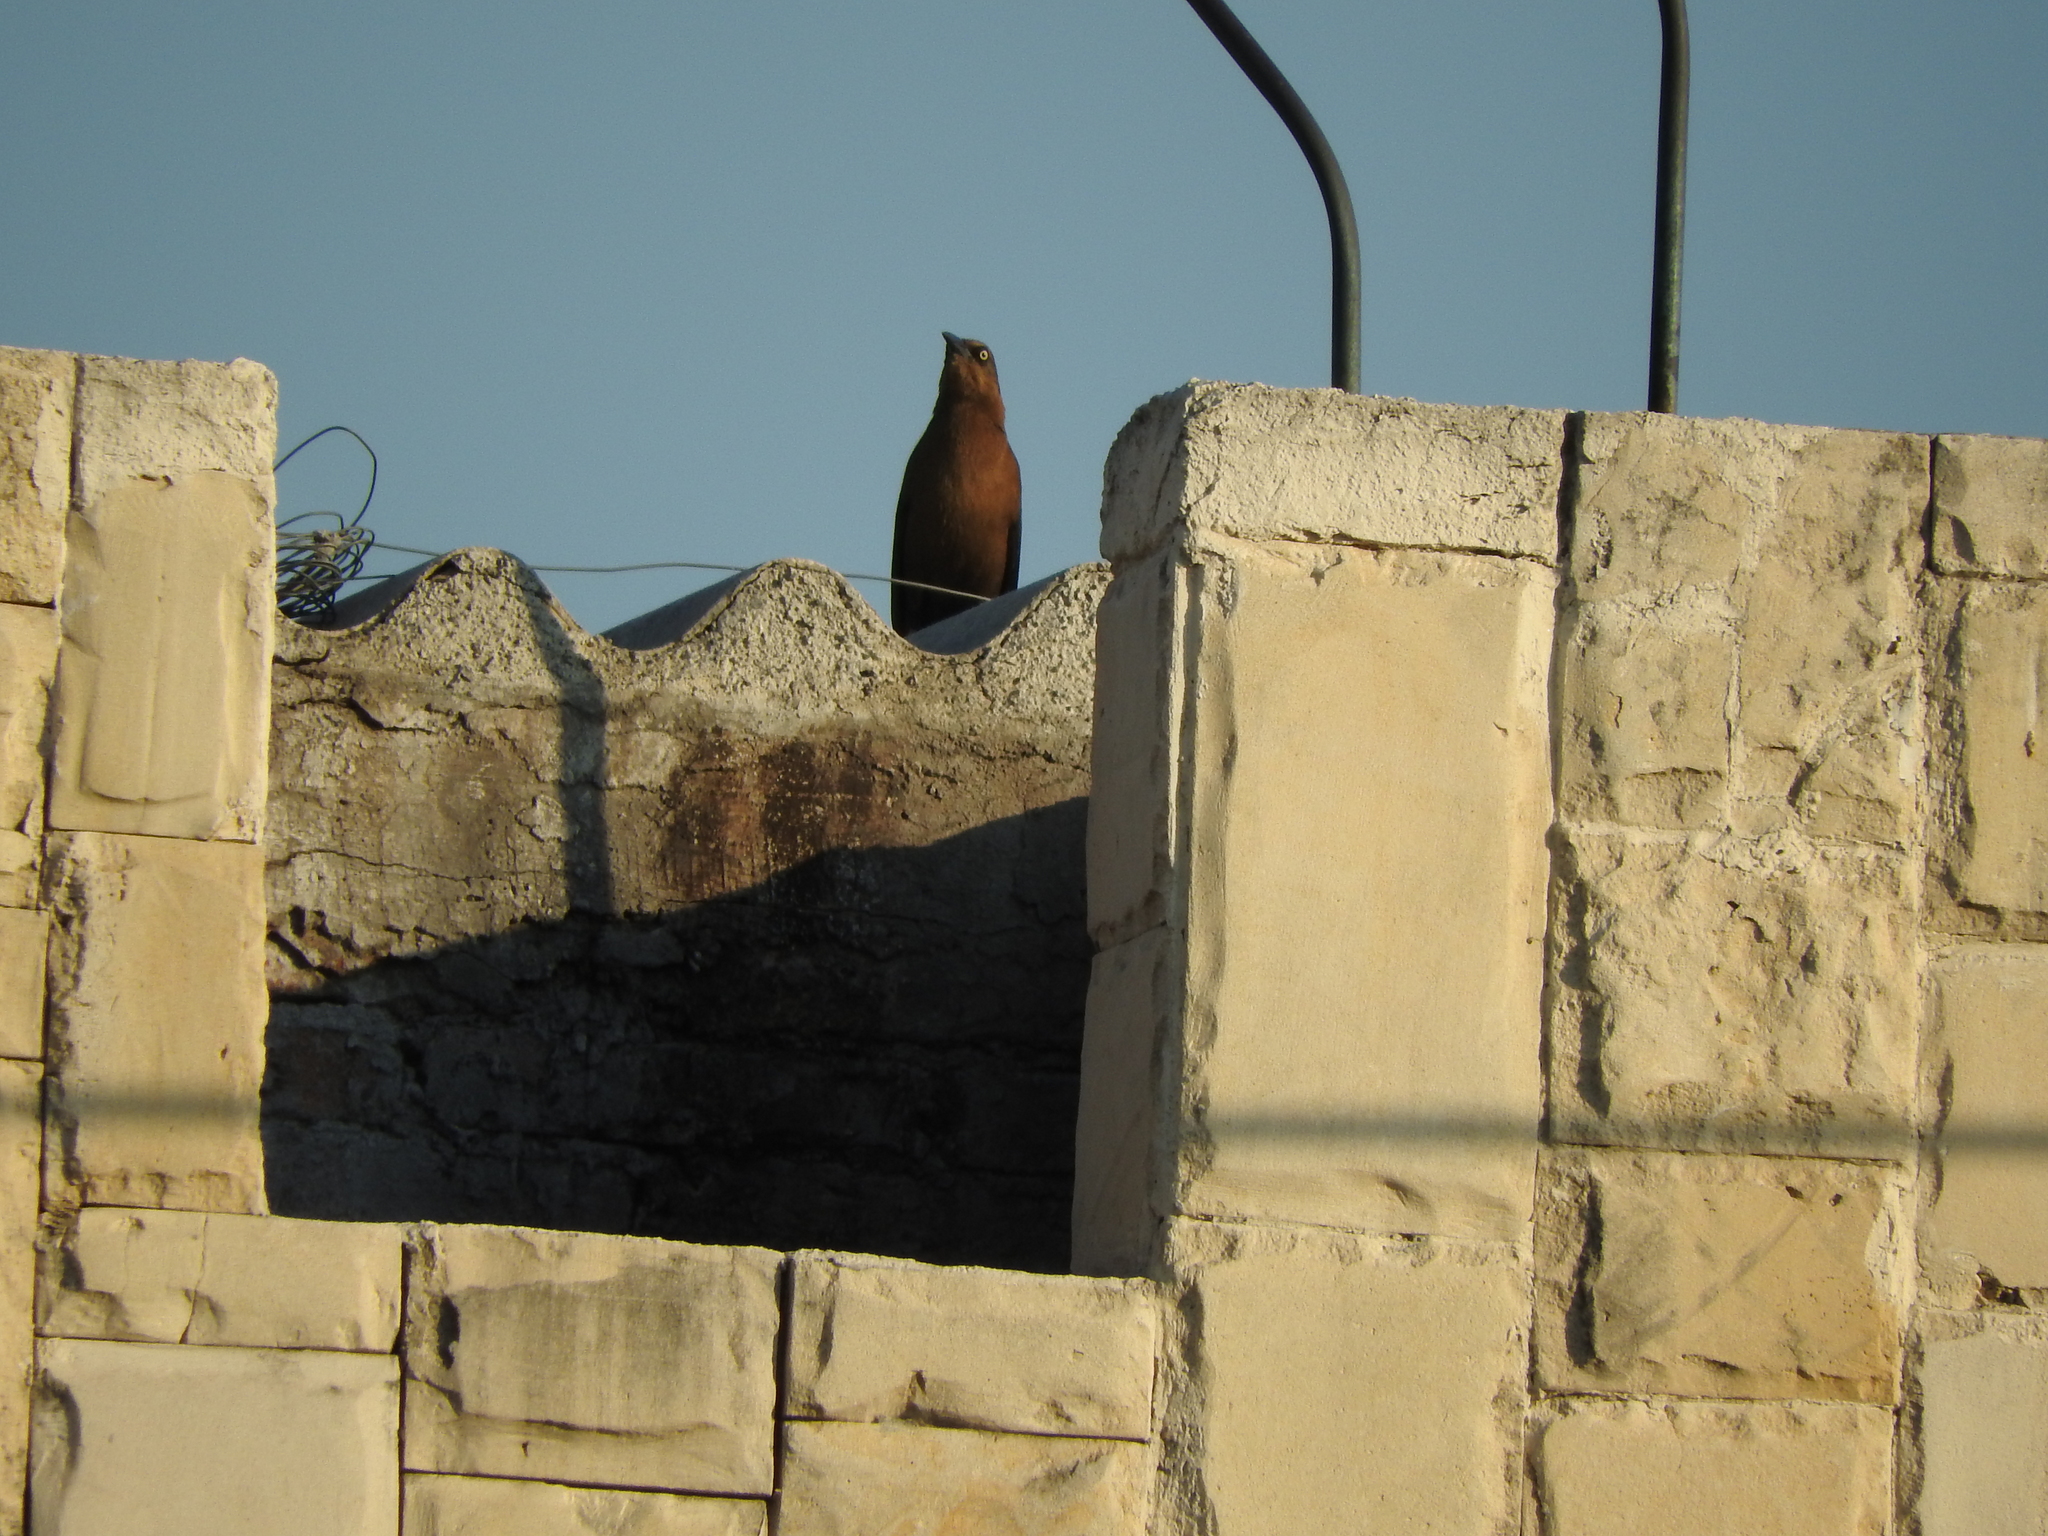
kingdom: Animalia
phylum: Chordata
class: Aves
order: Passeriformes
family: Icteridae
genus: Quiscalus
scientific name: Quiscalus mexicanus
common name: Great-tailed grackle
